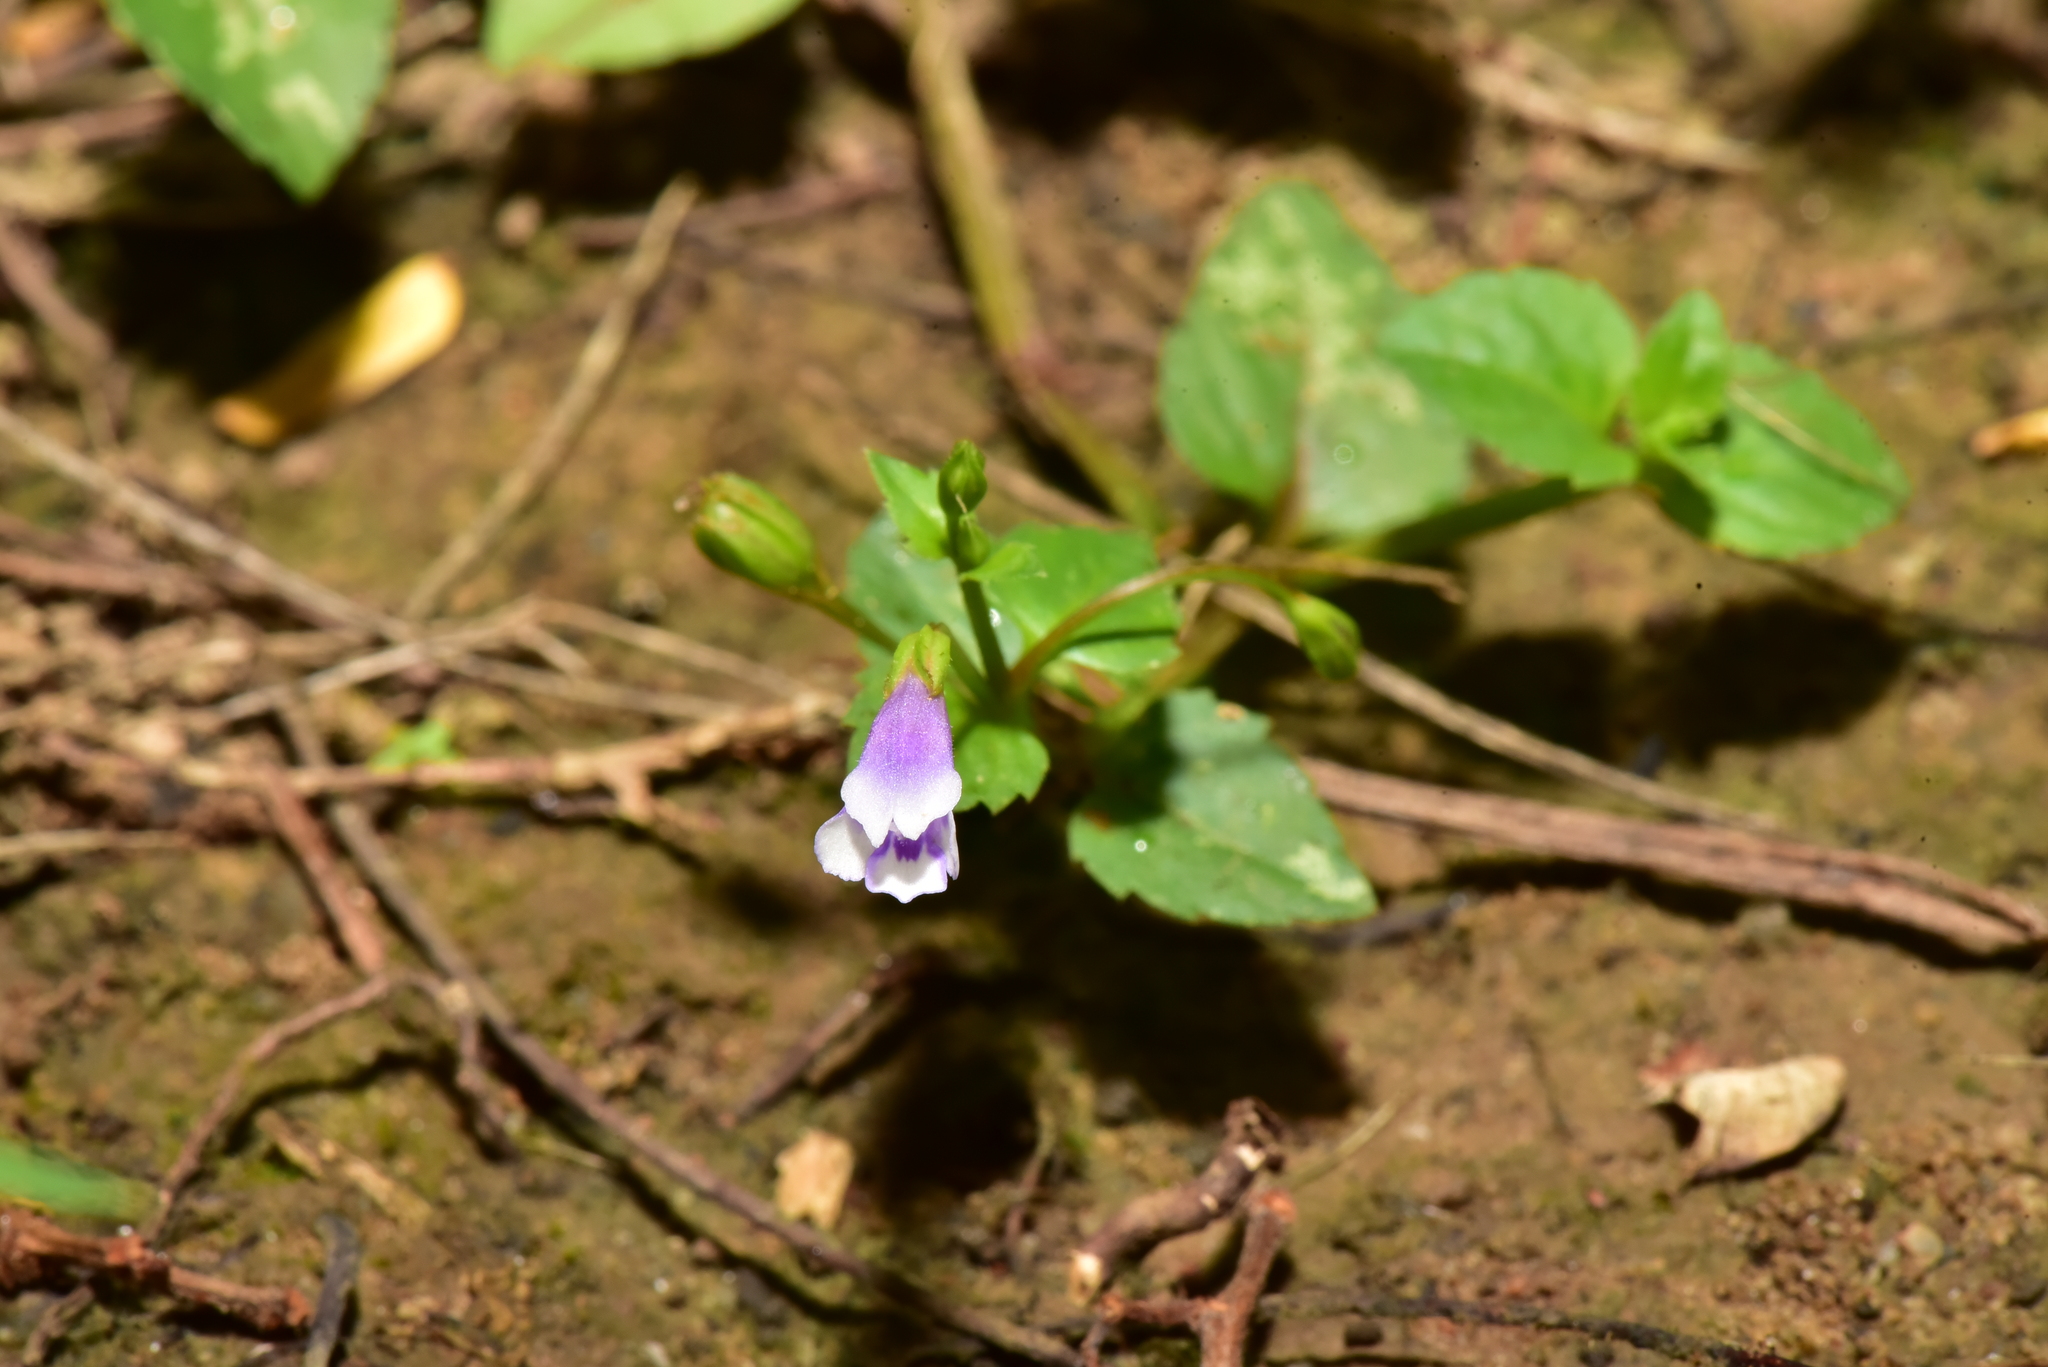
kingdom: Plantae
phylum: Tracheophyta
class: Magnoliopsida
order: Lamiales
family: Linderniaceae
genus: Torenia
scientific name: Torenia crustacea
